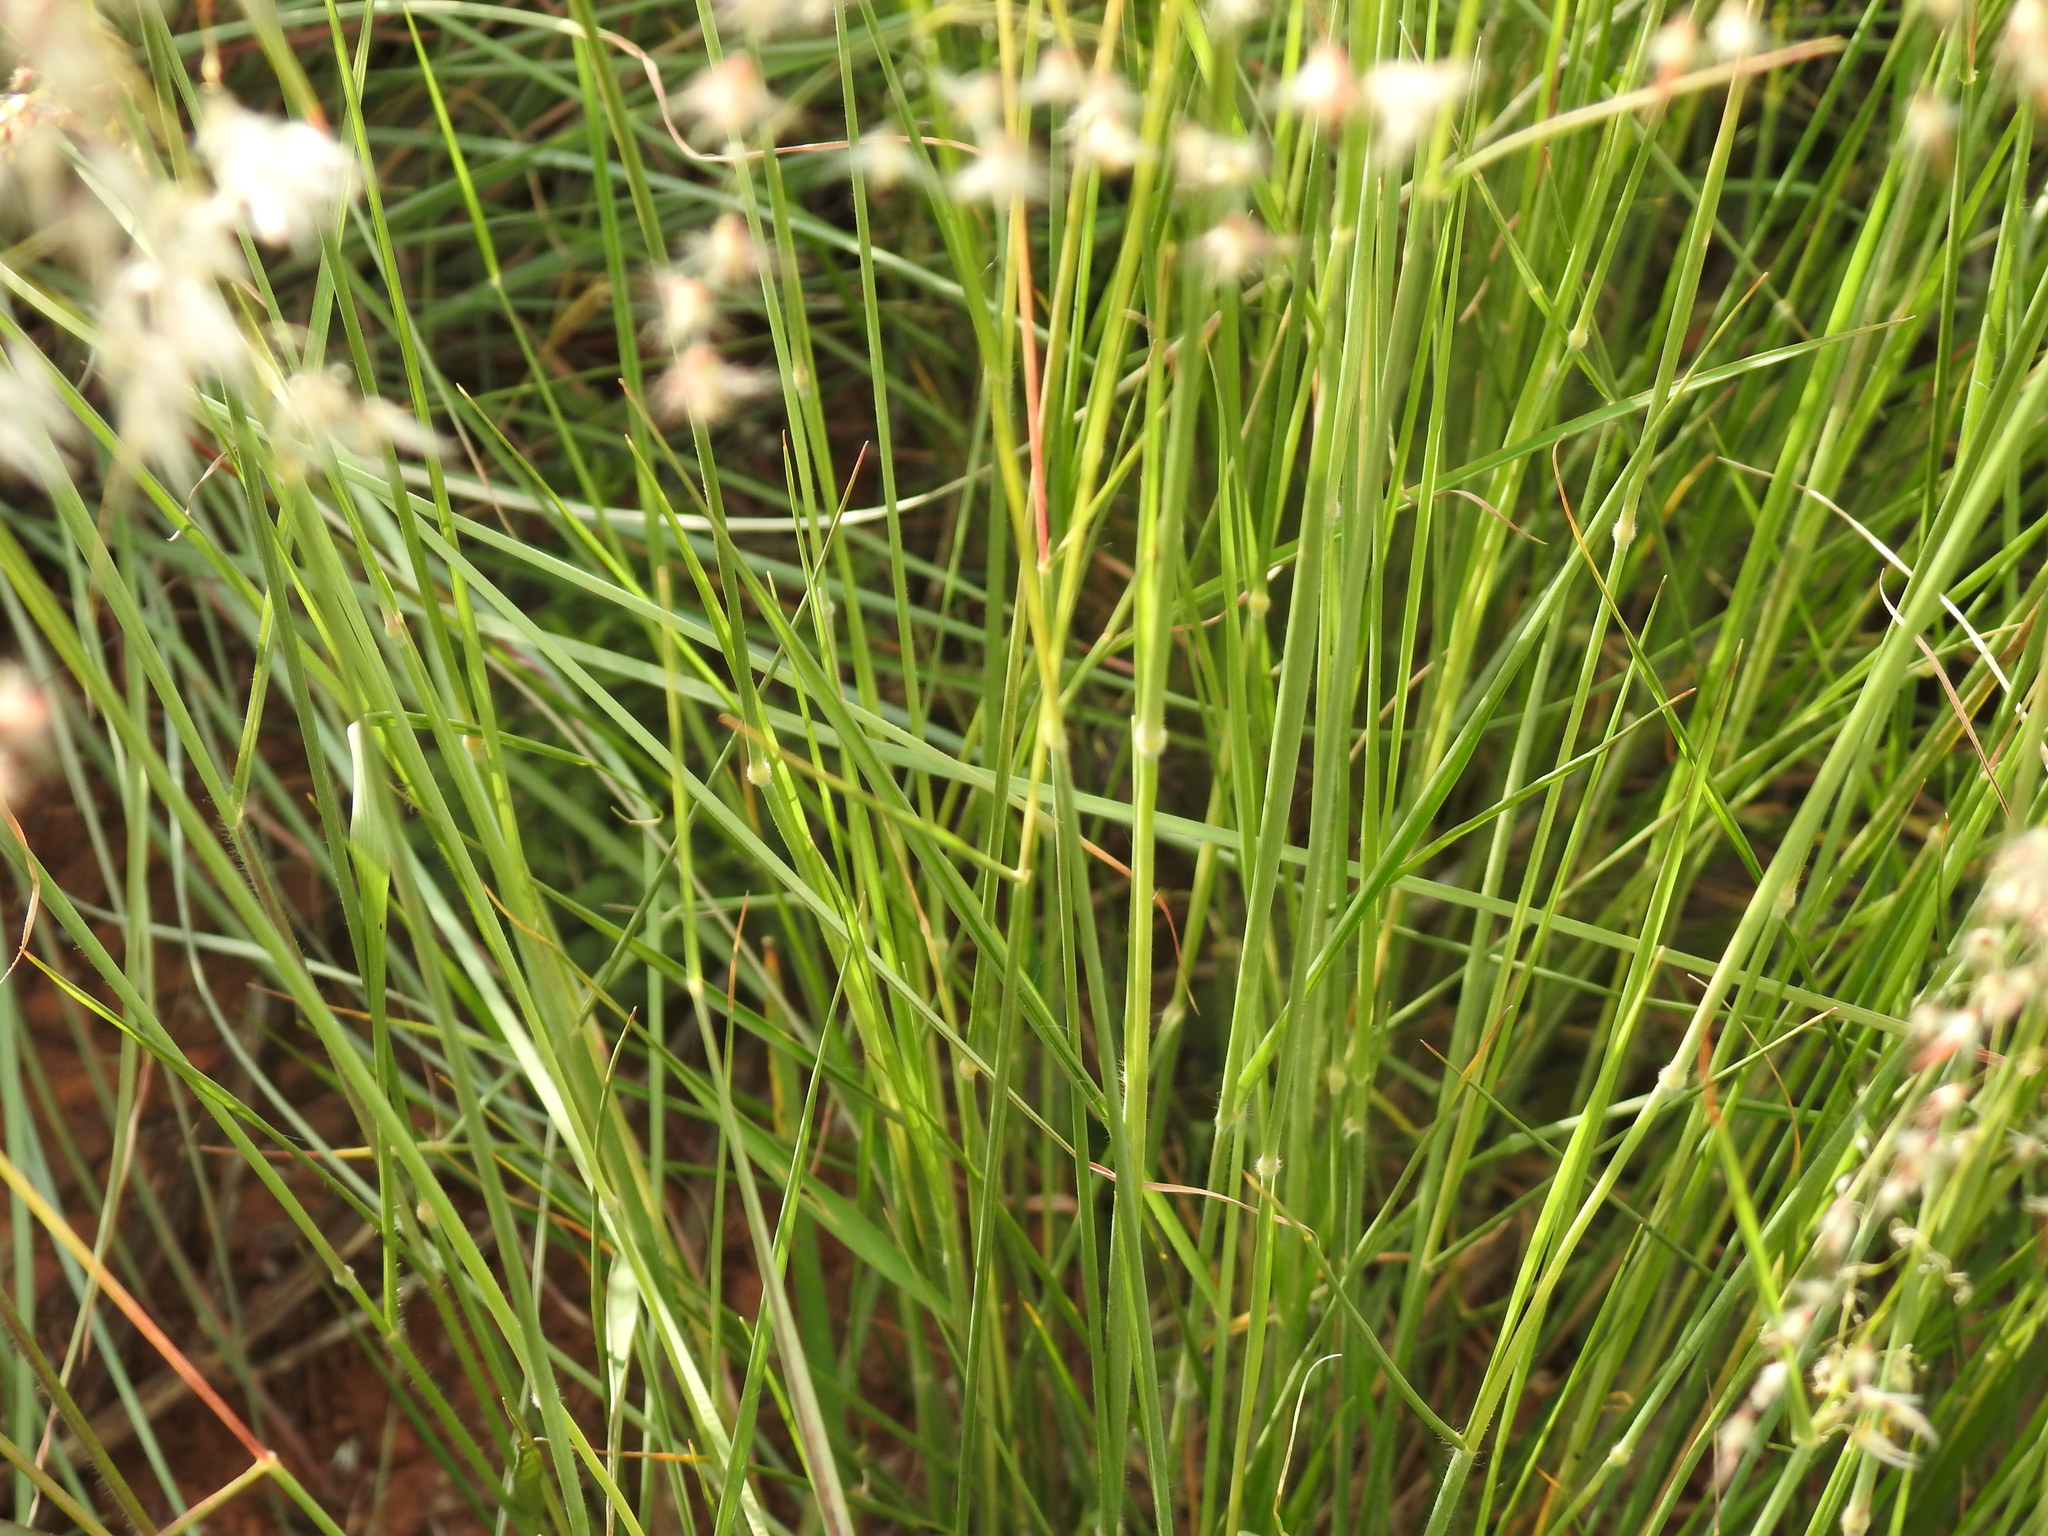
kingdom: Plantae
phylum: Tracheophyta
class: Liliopsida
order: Poales
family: Poaceae
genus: Melinis
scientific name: Melinis repens
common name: Rose natal grass
